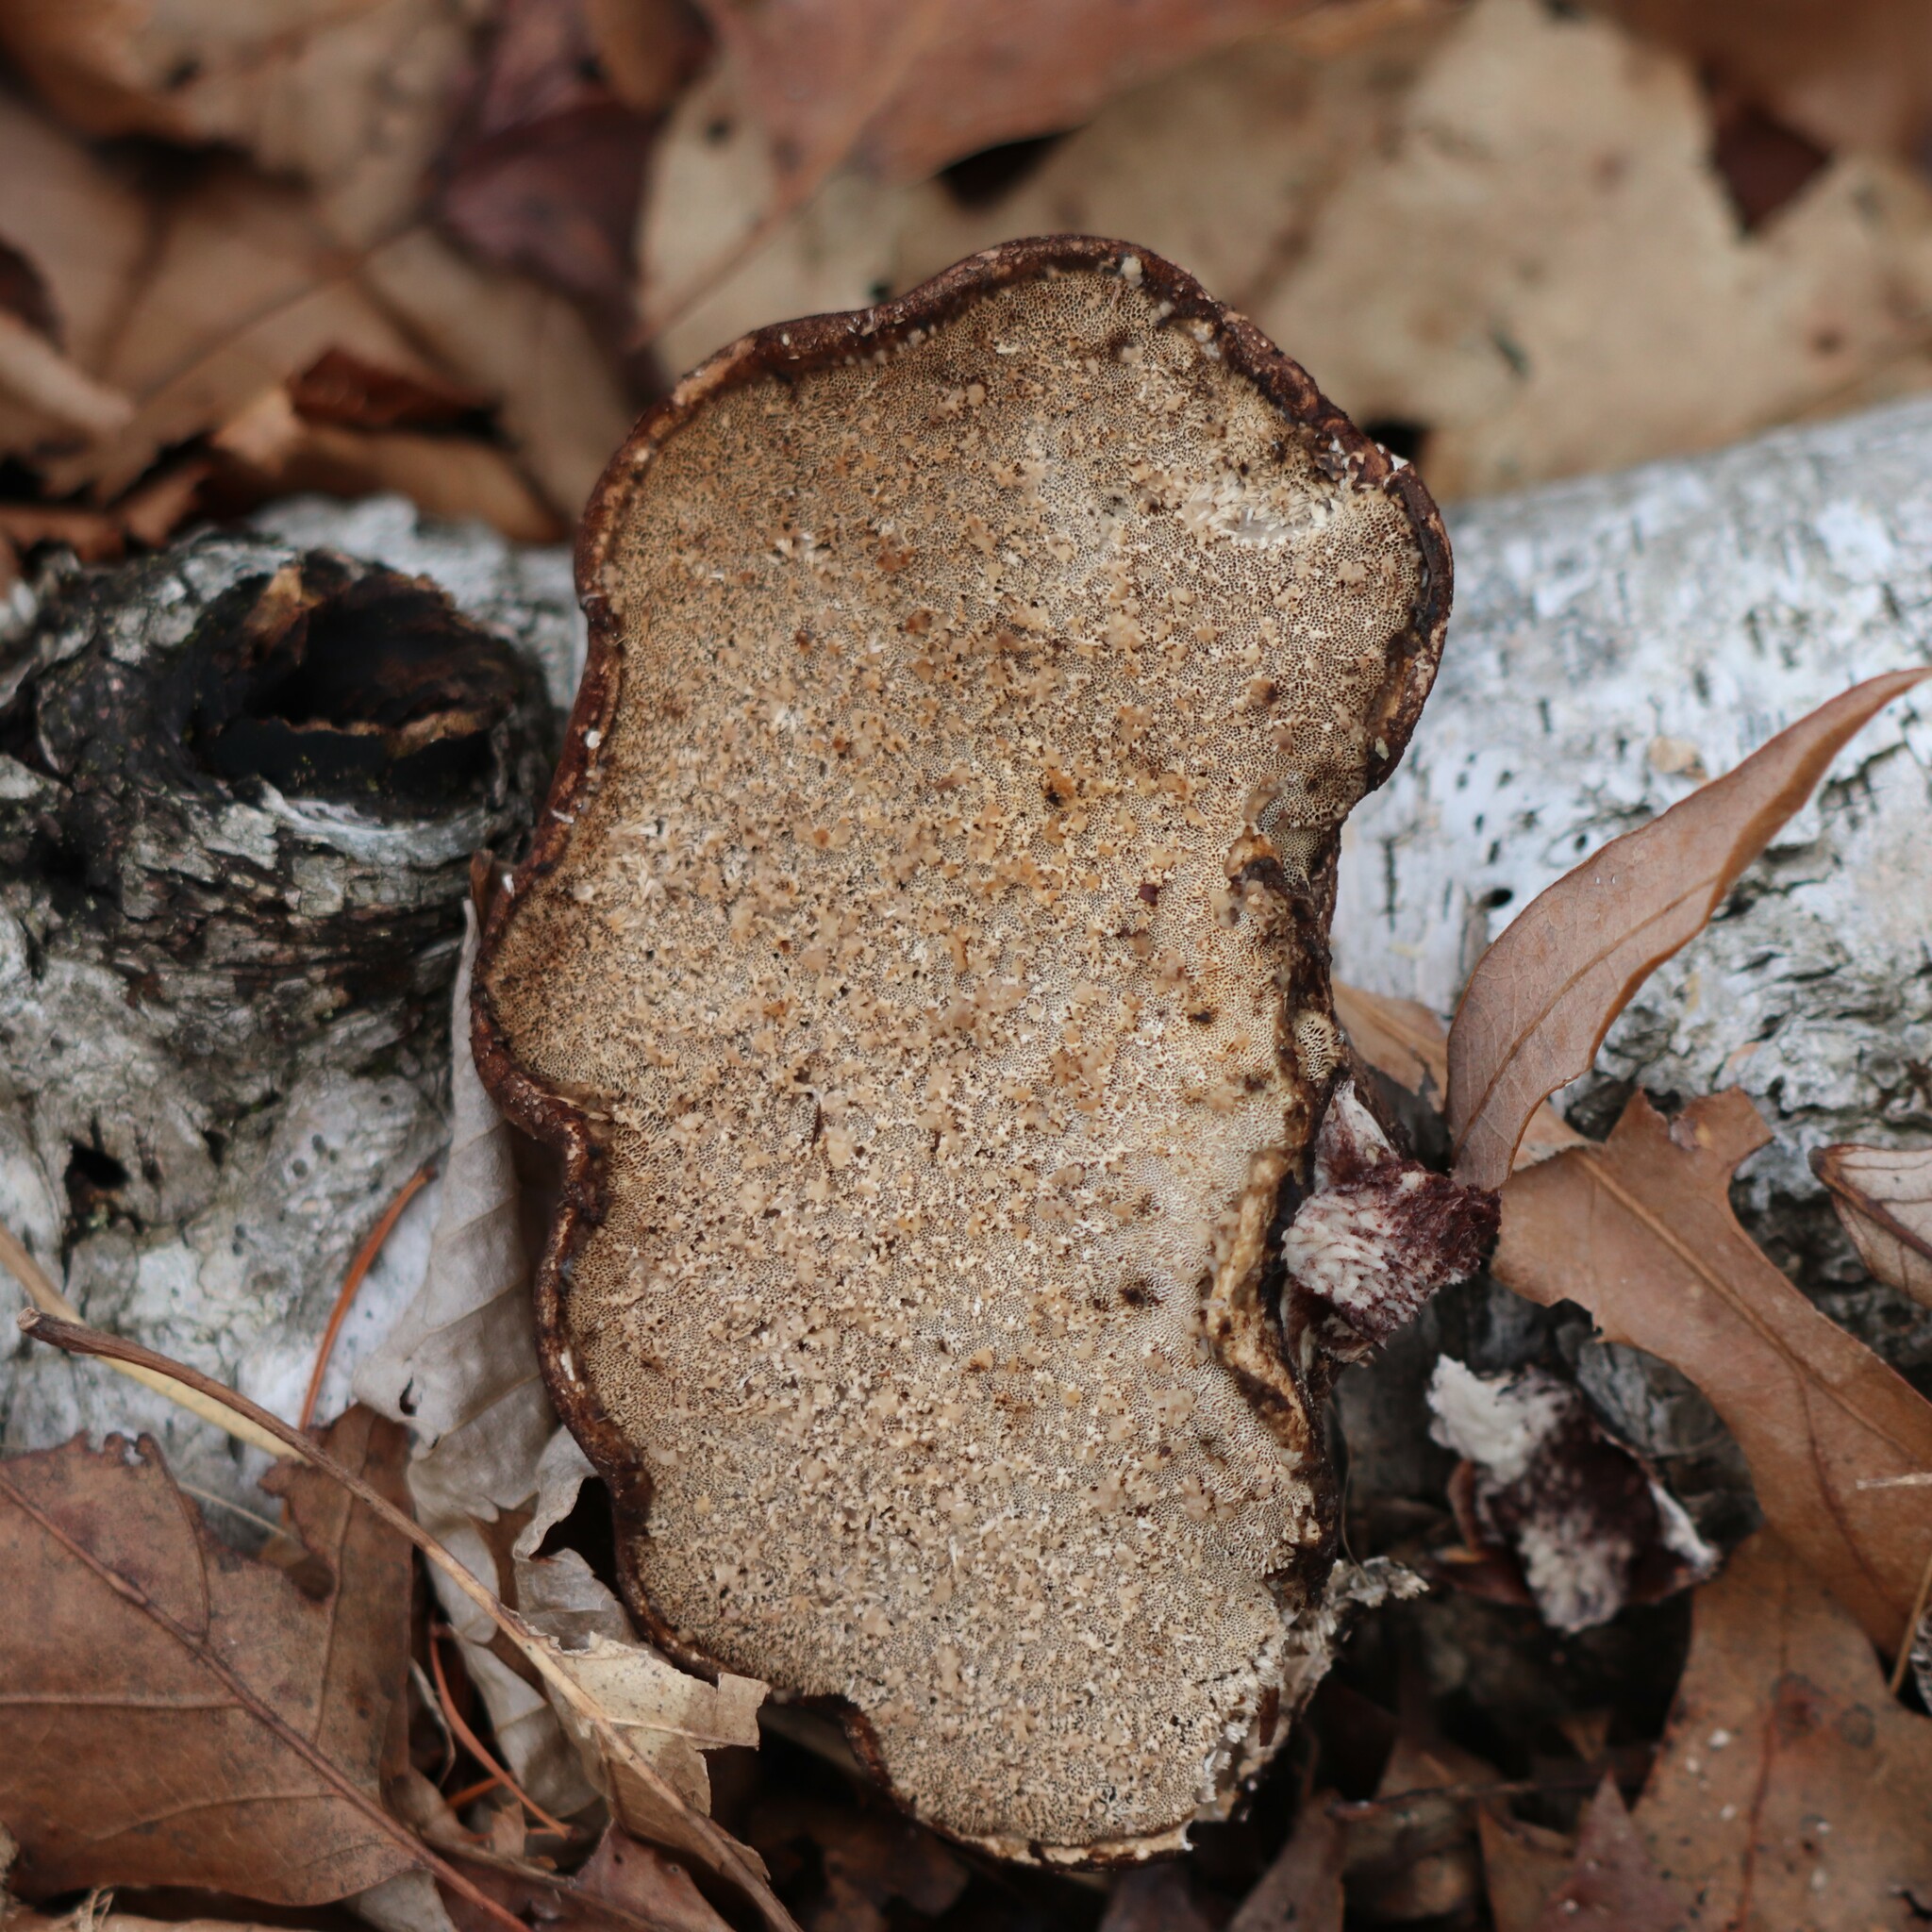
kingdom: Fungi
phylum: Basidiomycota
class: Agaricomycetes
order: Polyporales
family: Fomitopsidaceae
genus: Fomitopsis
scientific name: Fomitopsis betulina
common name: Birch polypore
